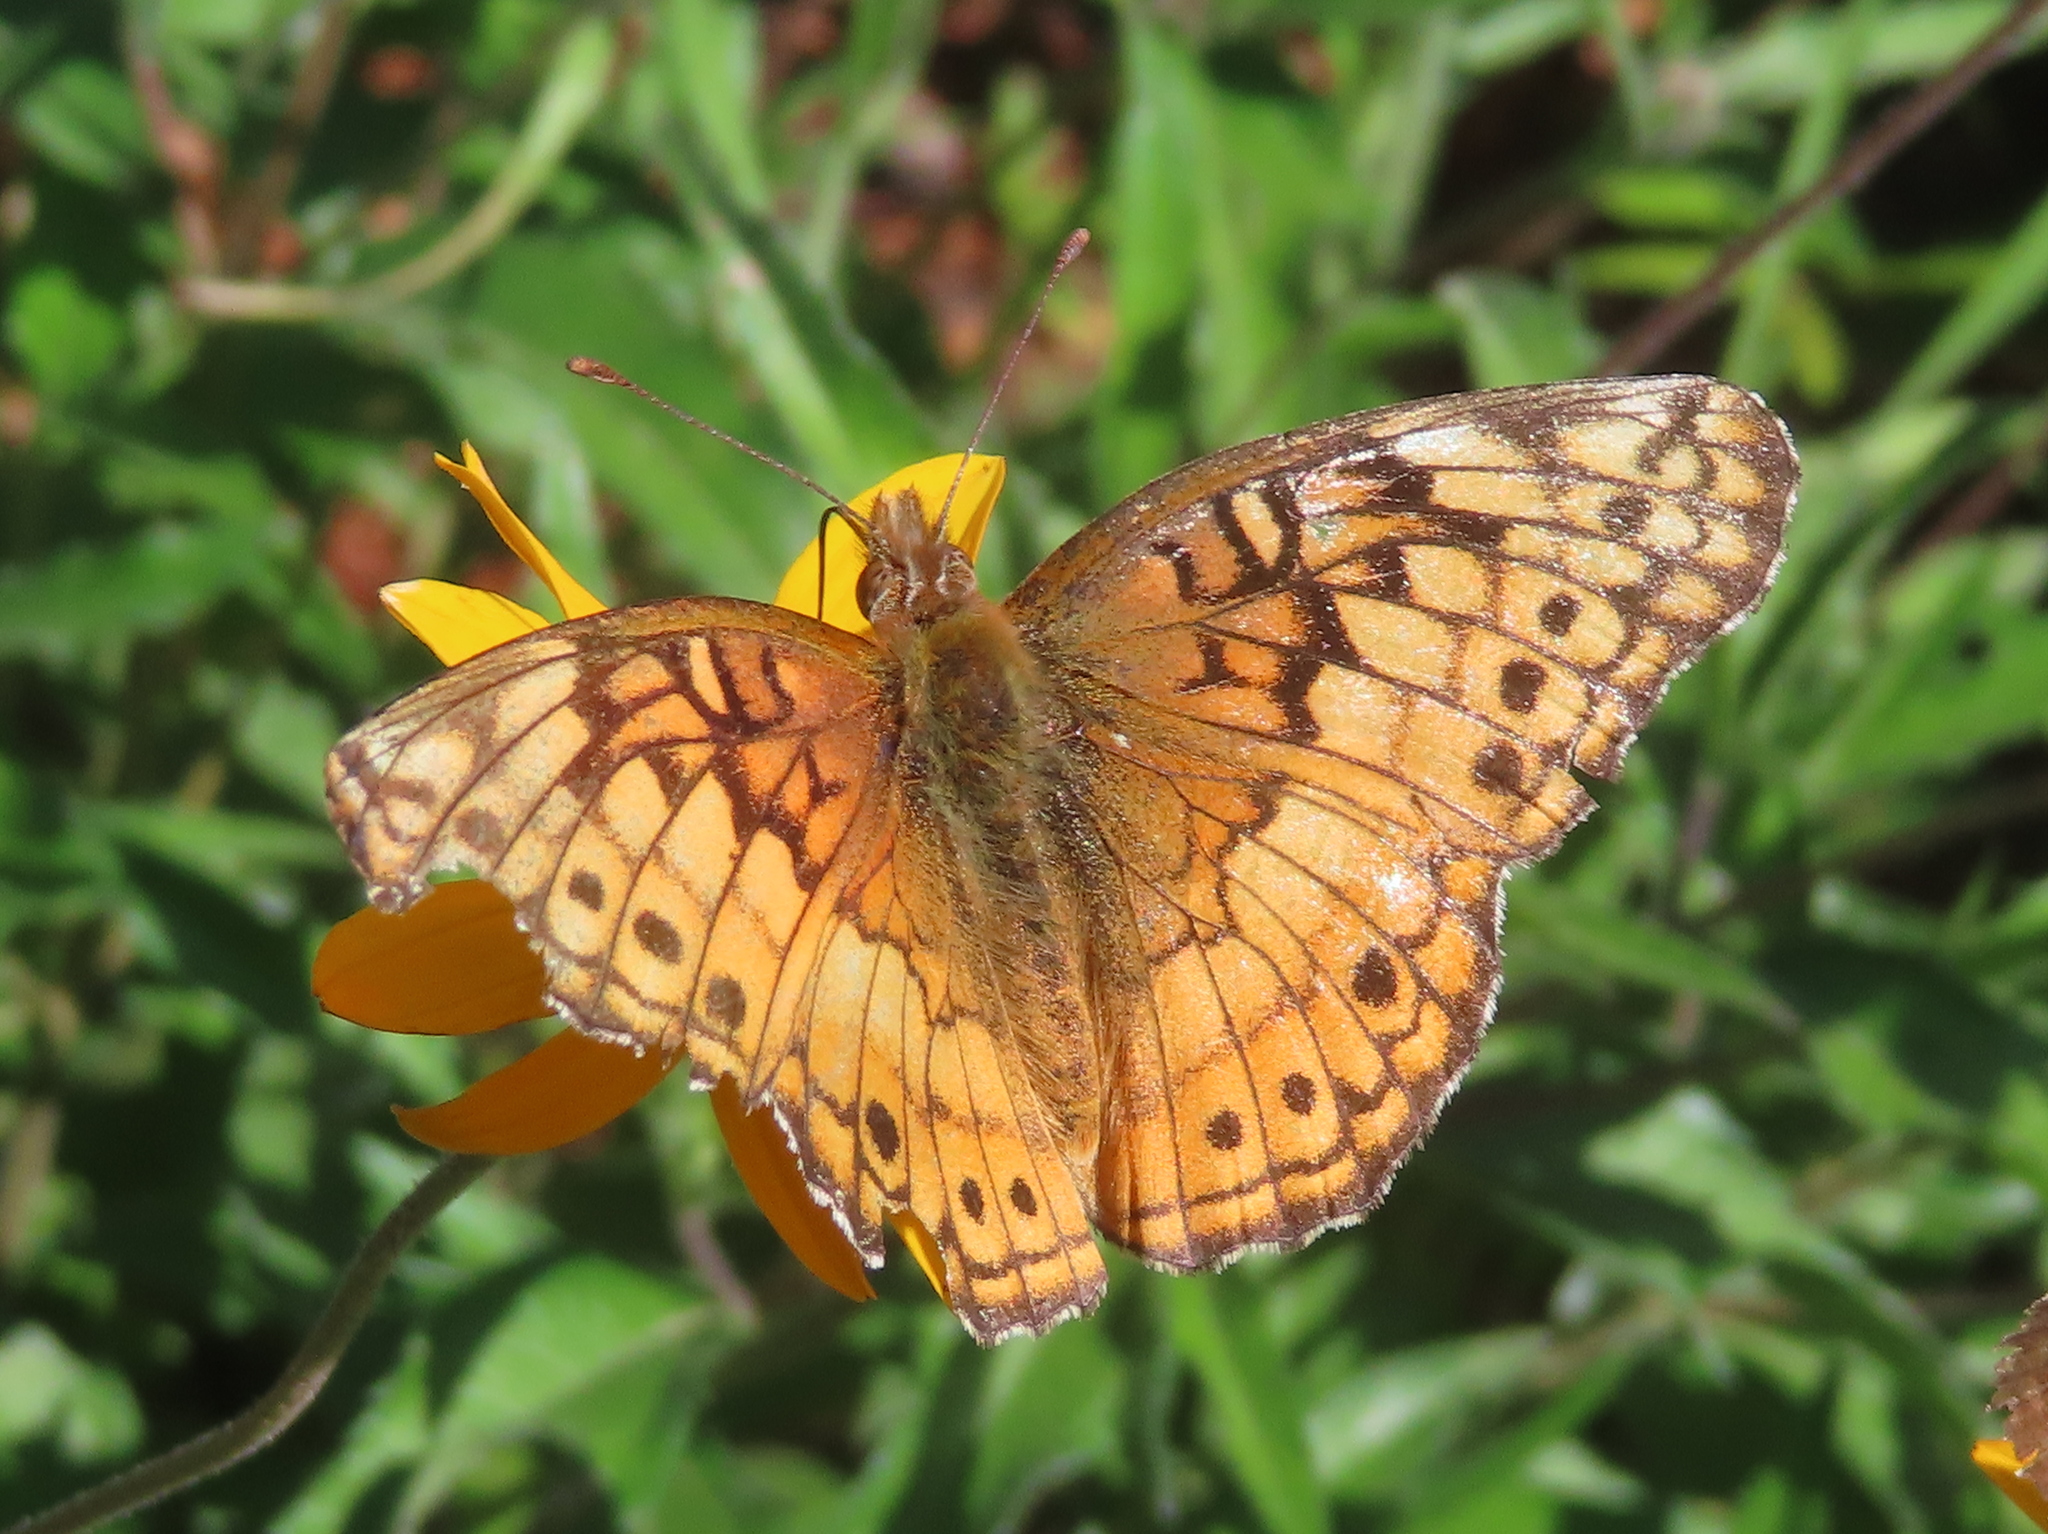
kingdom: Animalia
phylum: Arthropoda
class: Insecta
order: Lepidoptera
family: Nymphalidae
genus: Euptoieta
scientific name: Euptoieta claudia
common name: Variegated fritillary
